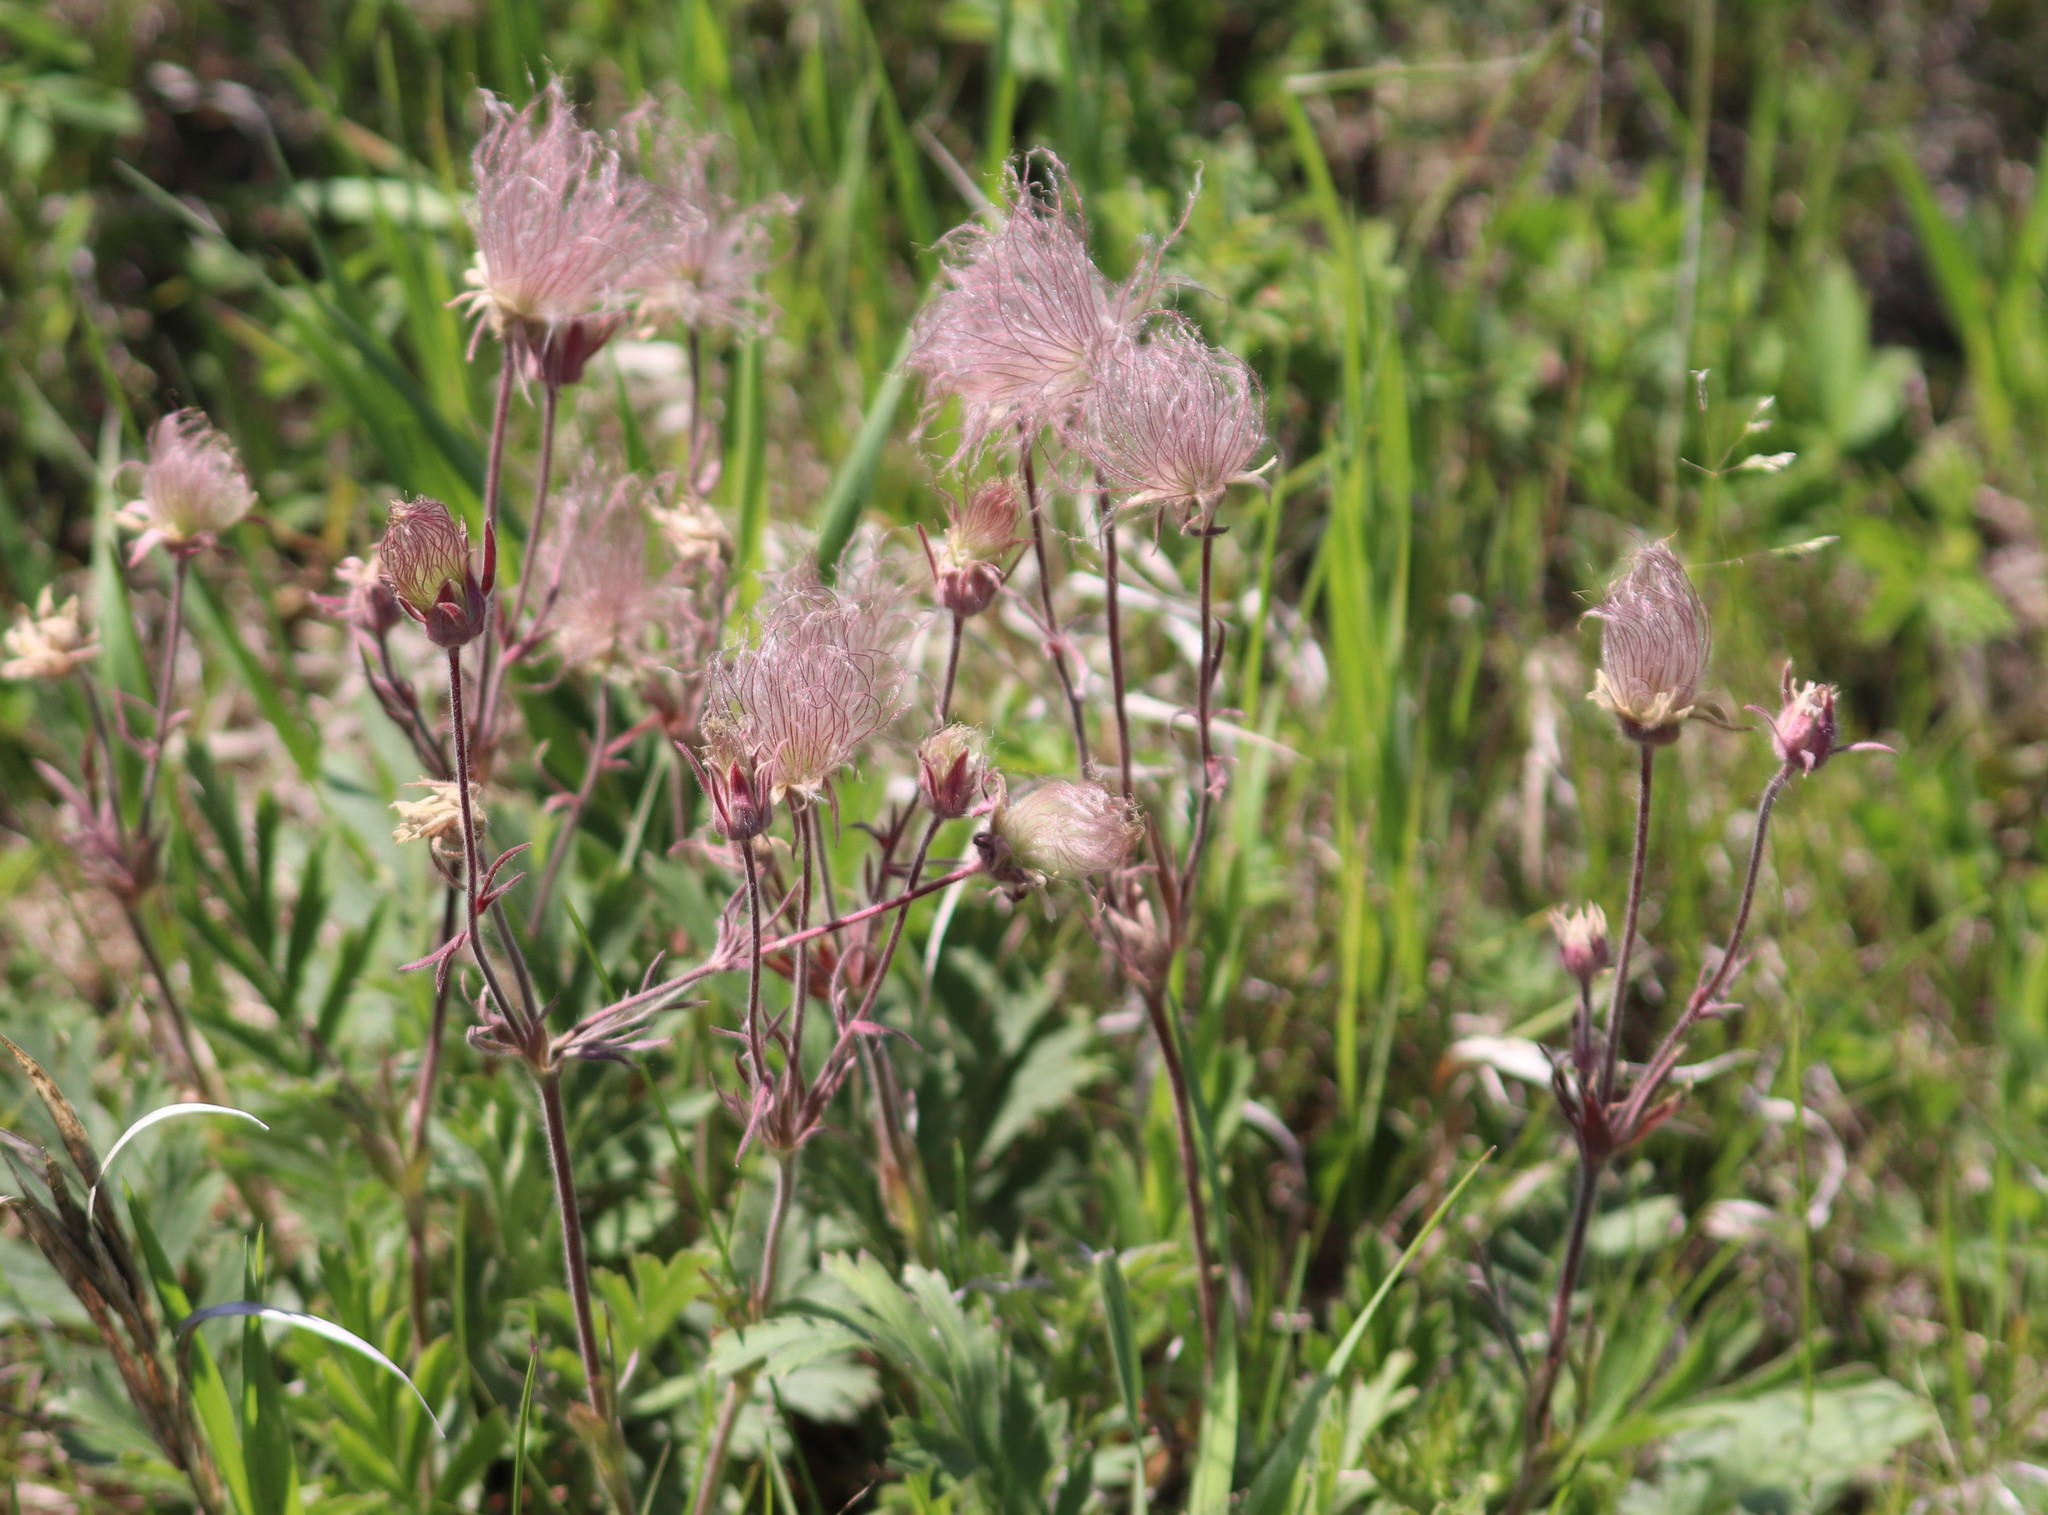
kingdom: Plantae
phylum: Tracheophyta
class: Magnoliopsida
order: Rosales
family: Rosaceae
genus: Geum
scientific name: Geum triflorum
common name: Old man's whiskers
